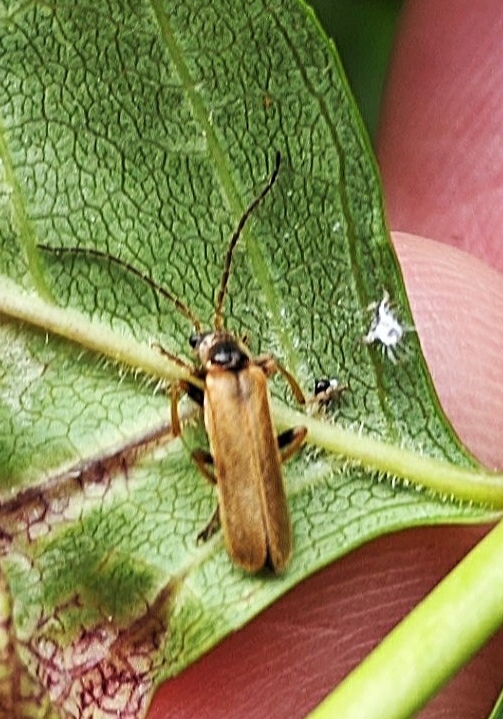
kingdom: Animalia
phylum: Arthropoda
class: Insecta
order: Coleoptera
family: Cantharidae
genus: Cantharis
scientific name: Cantharis figurata
